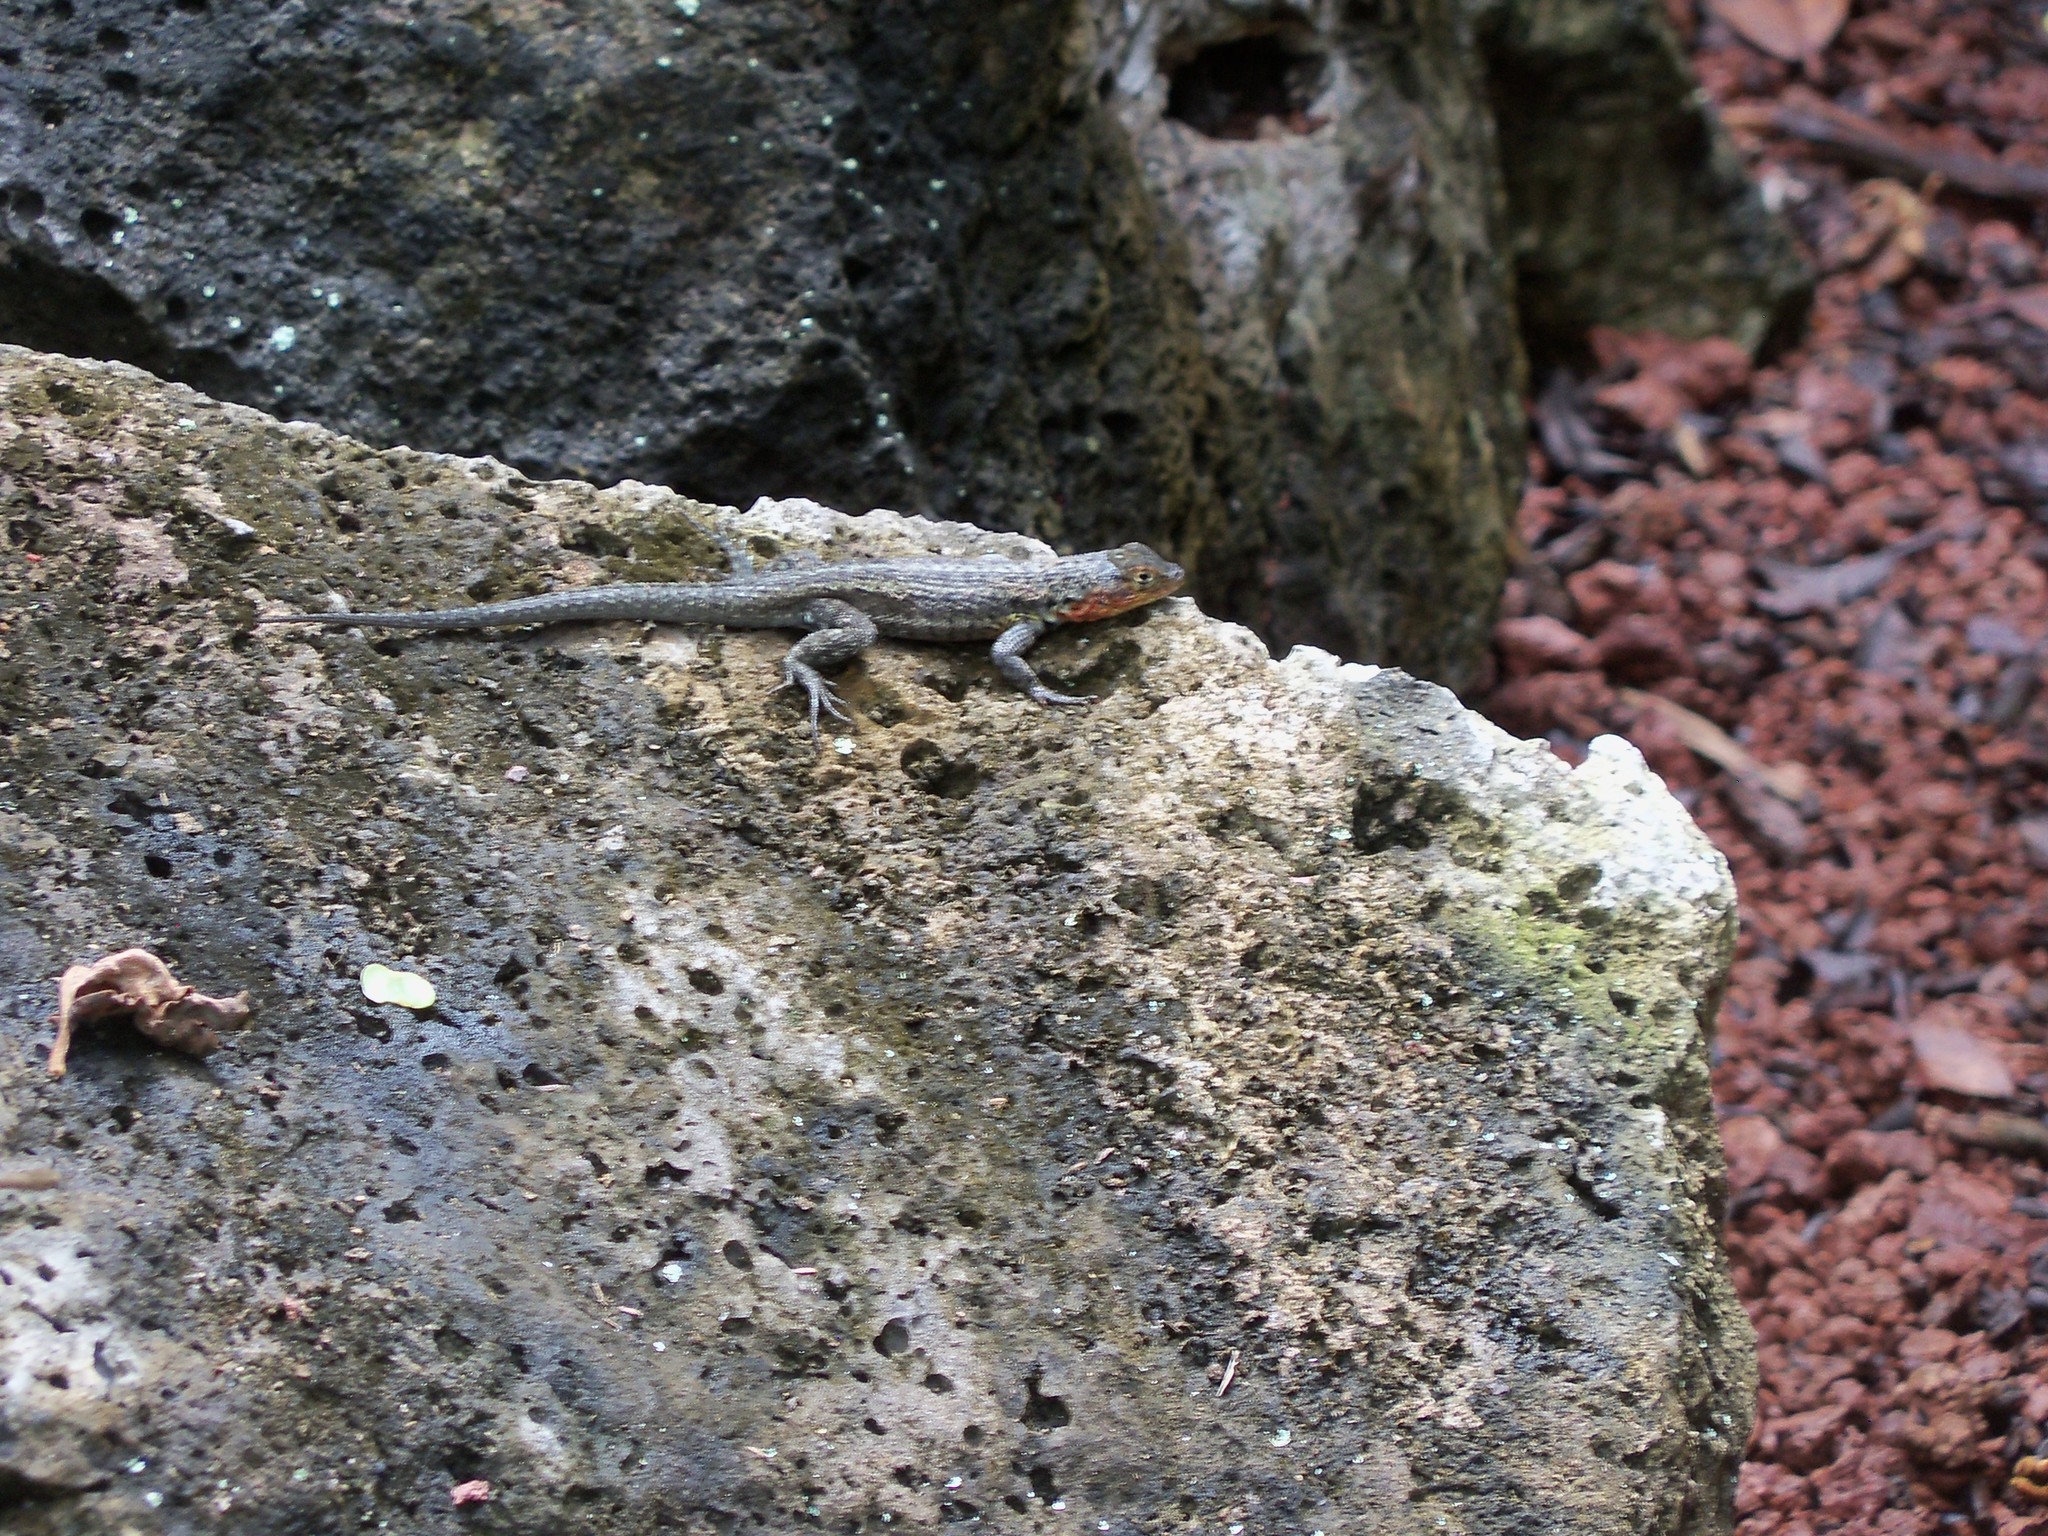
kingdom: Animalia
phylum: Chordata
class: Squamata
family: Tropiduridae
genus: Microlophus
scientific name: Microlophus indefatigabilis
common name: Galapagos lava lizard
